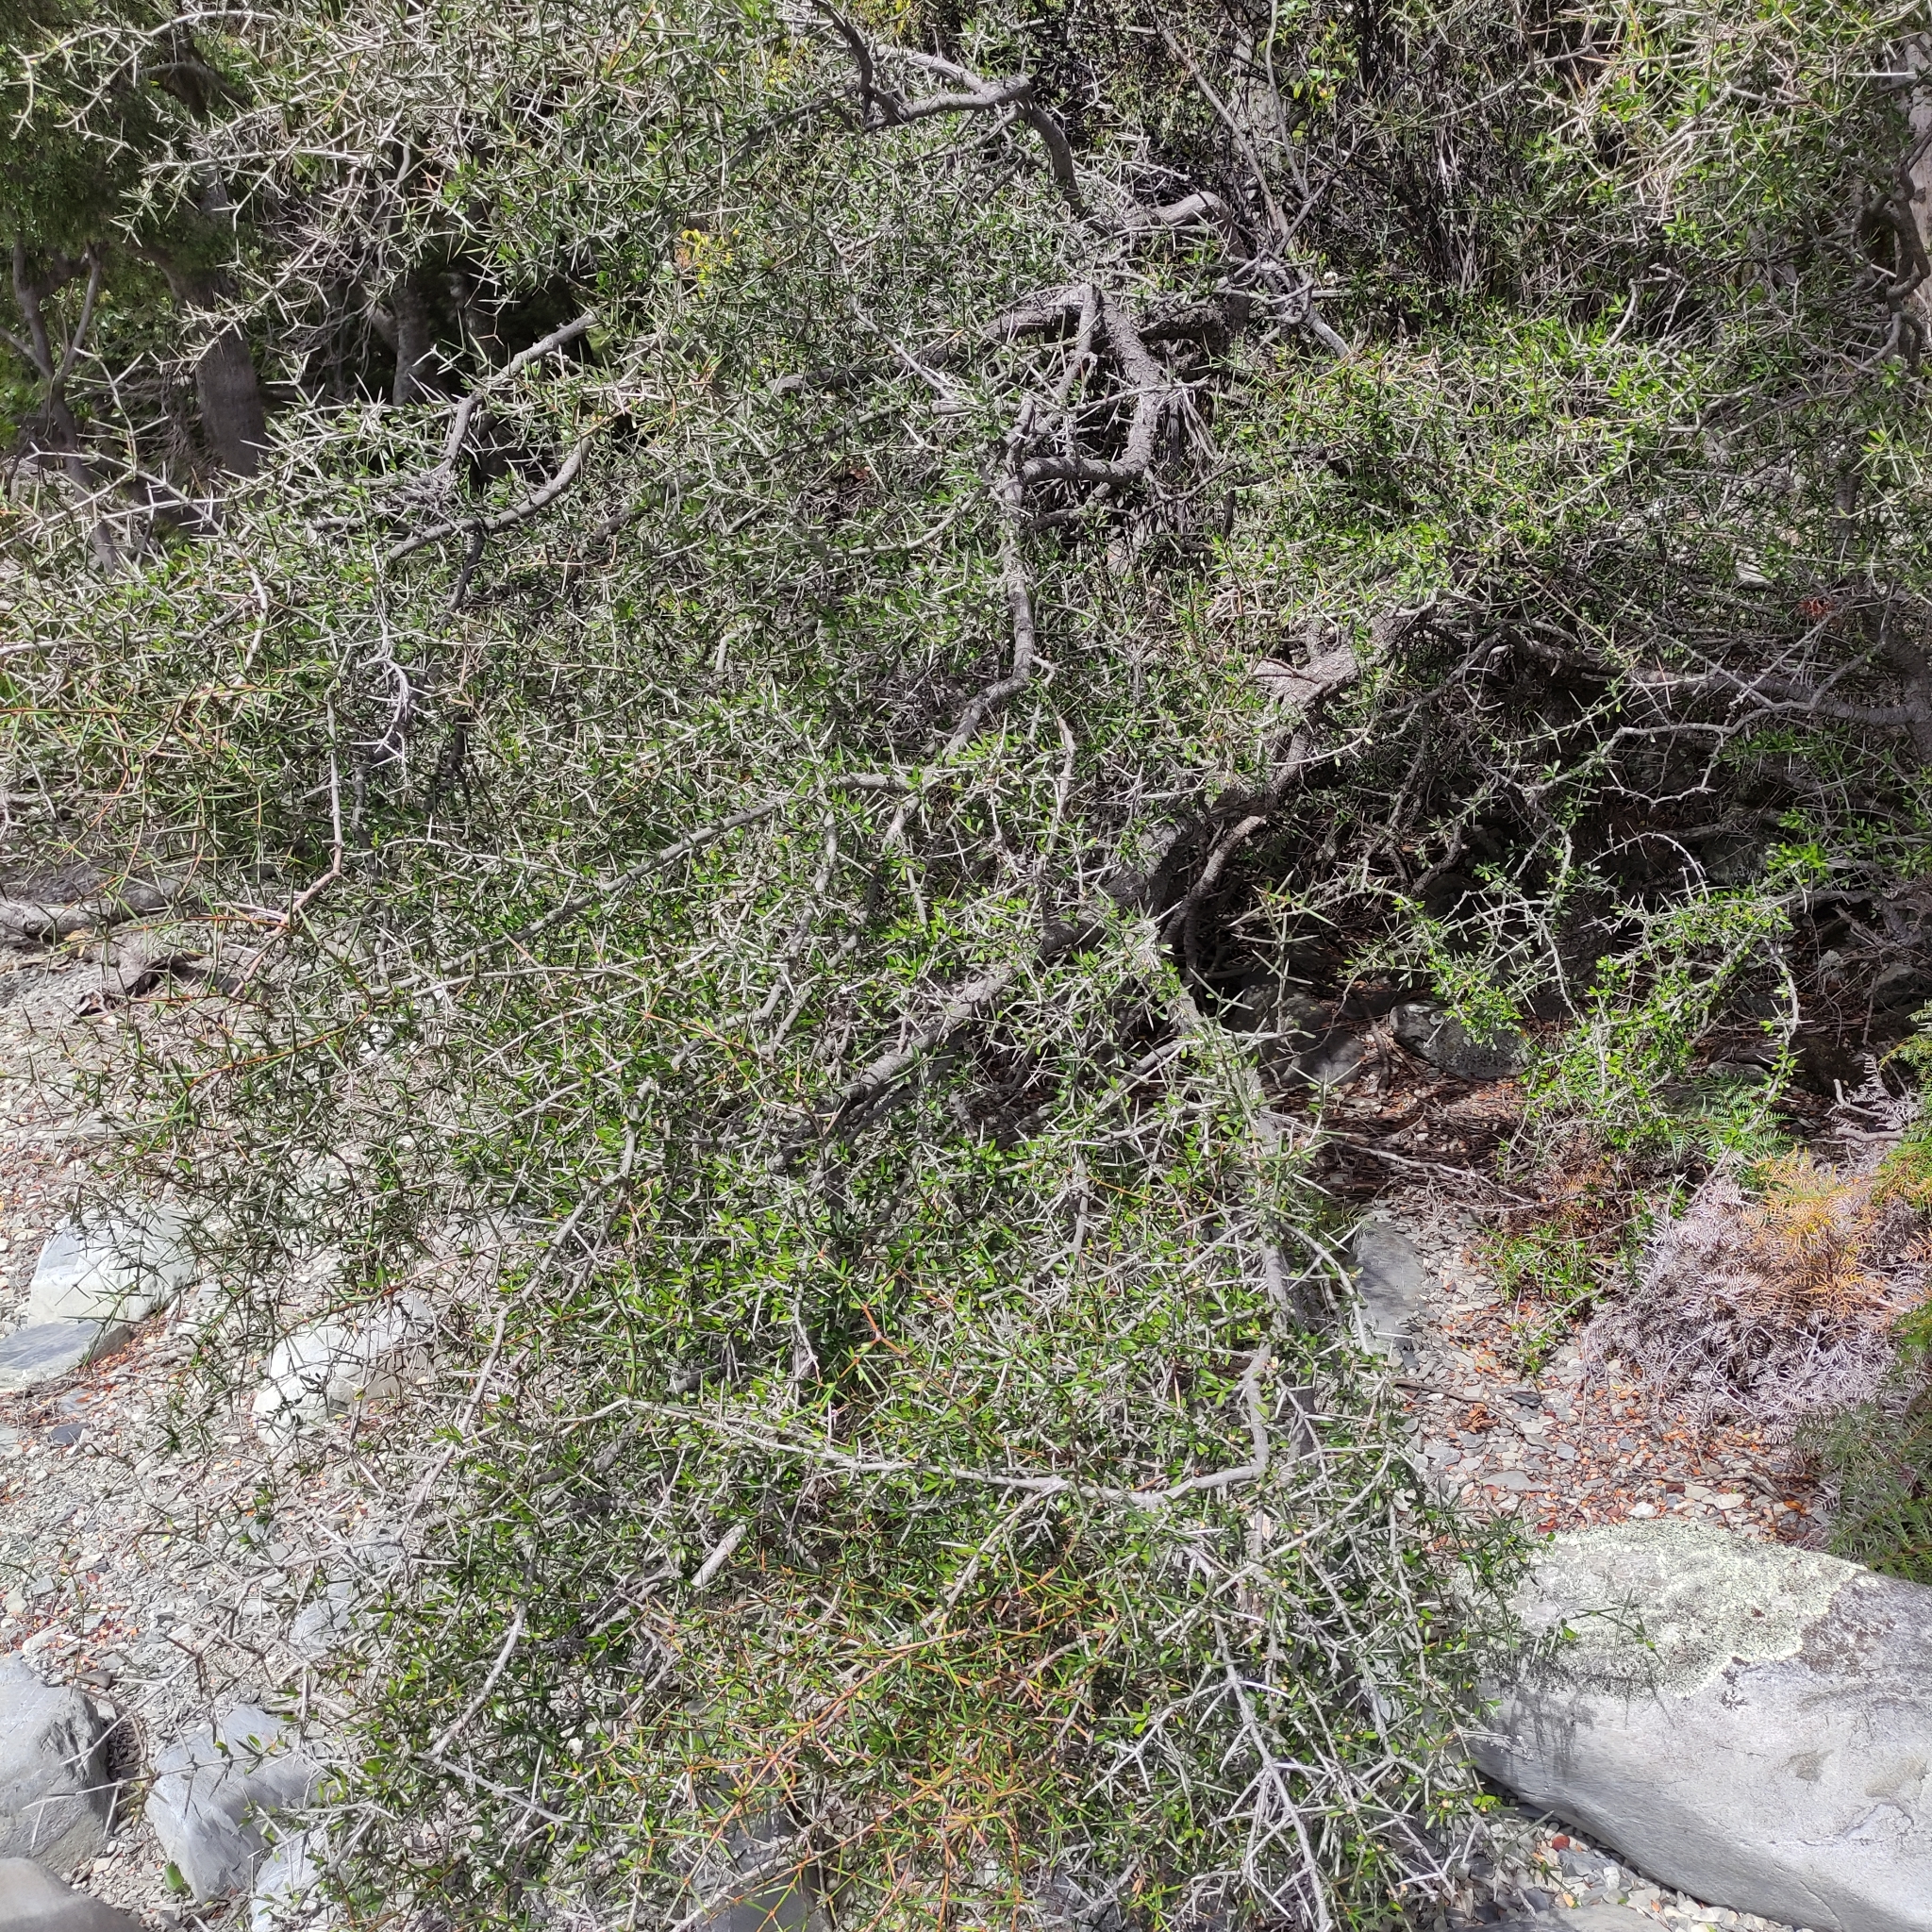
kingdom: Plantae
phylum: Tracheophyta
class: Magnoliopsida
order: Rosales
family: Rhamnaceae
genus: Discaria
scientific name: Discaria toumatou
